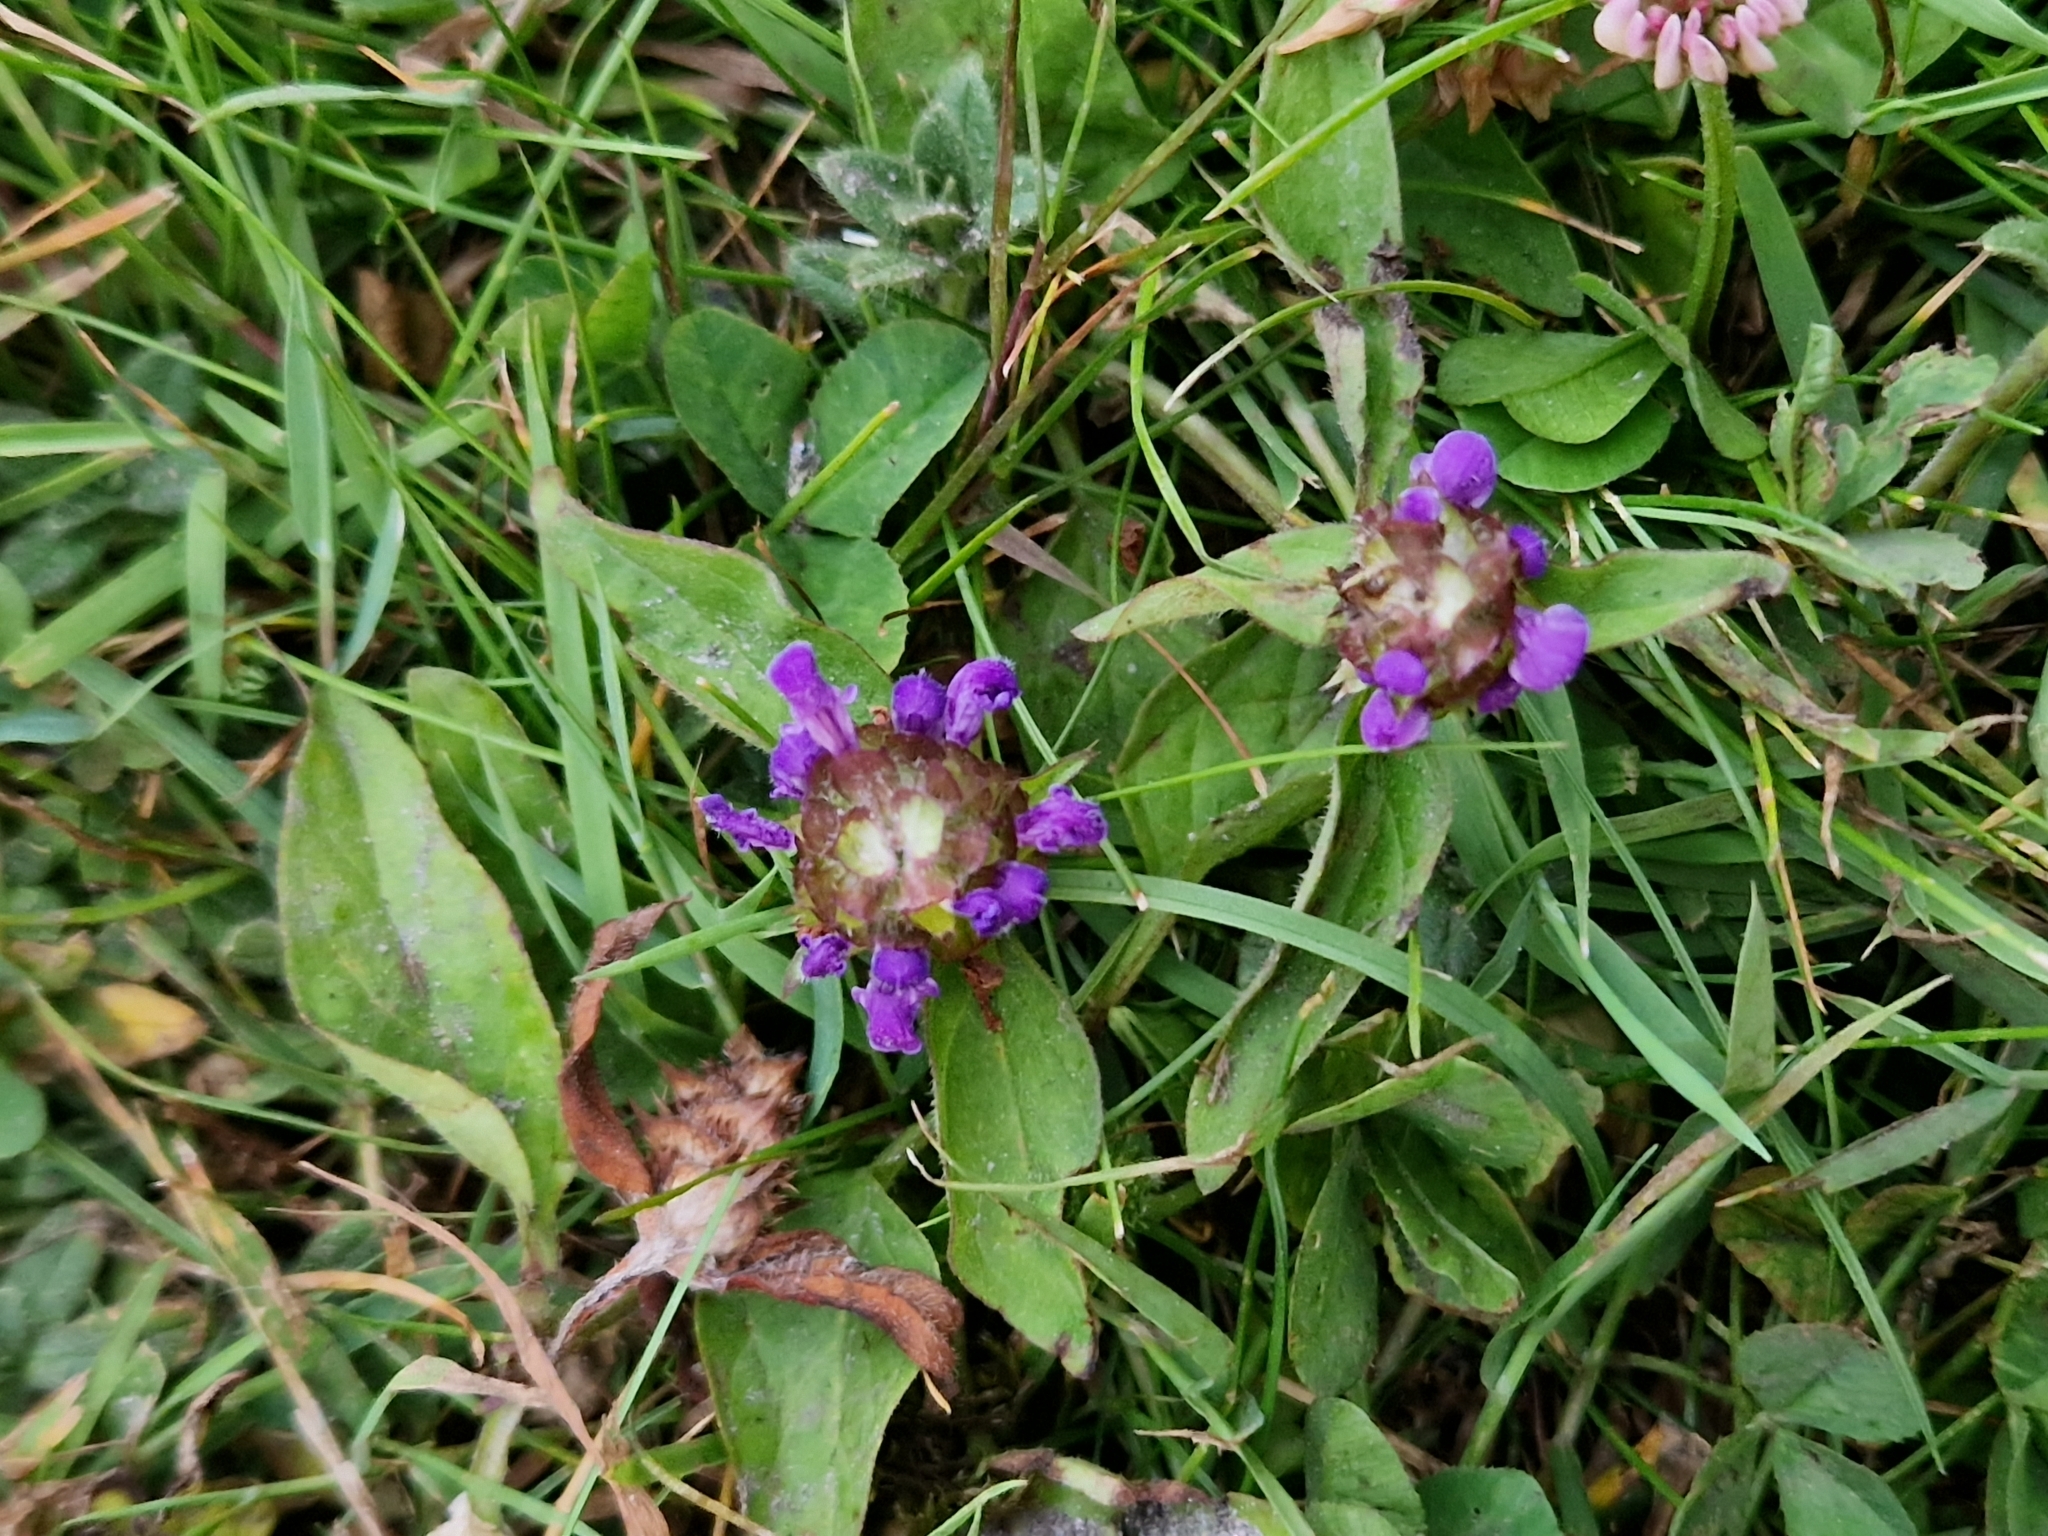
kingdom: Plantae
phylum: Tracheophyta
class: Magnoliopsida
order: Lamiales
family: Lamiaceae
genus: Prunella
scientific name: Prunella vulgaris
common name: Heal-all
